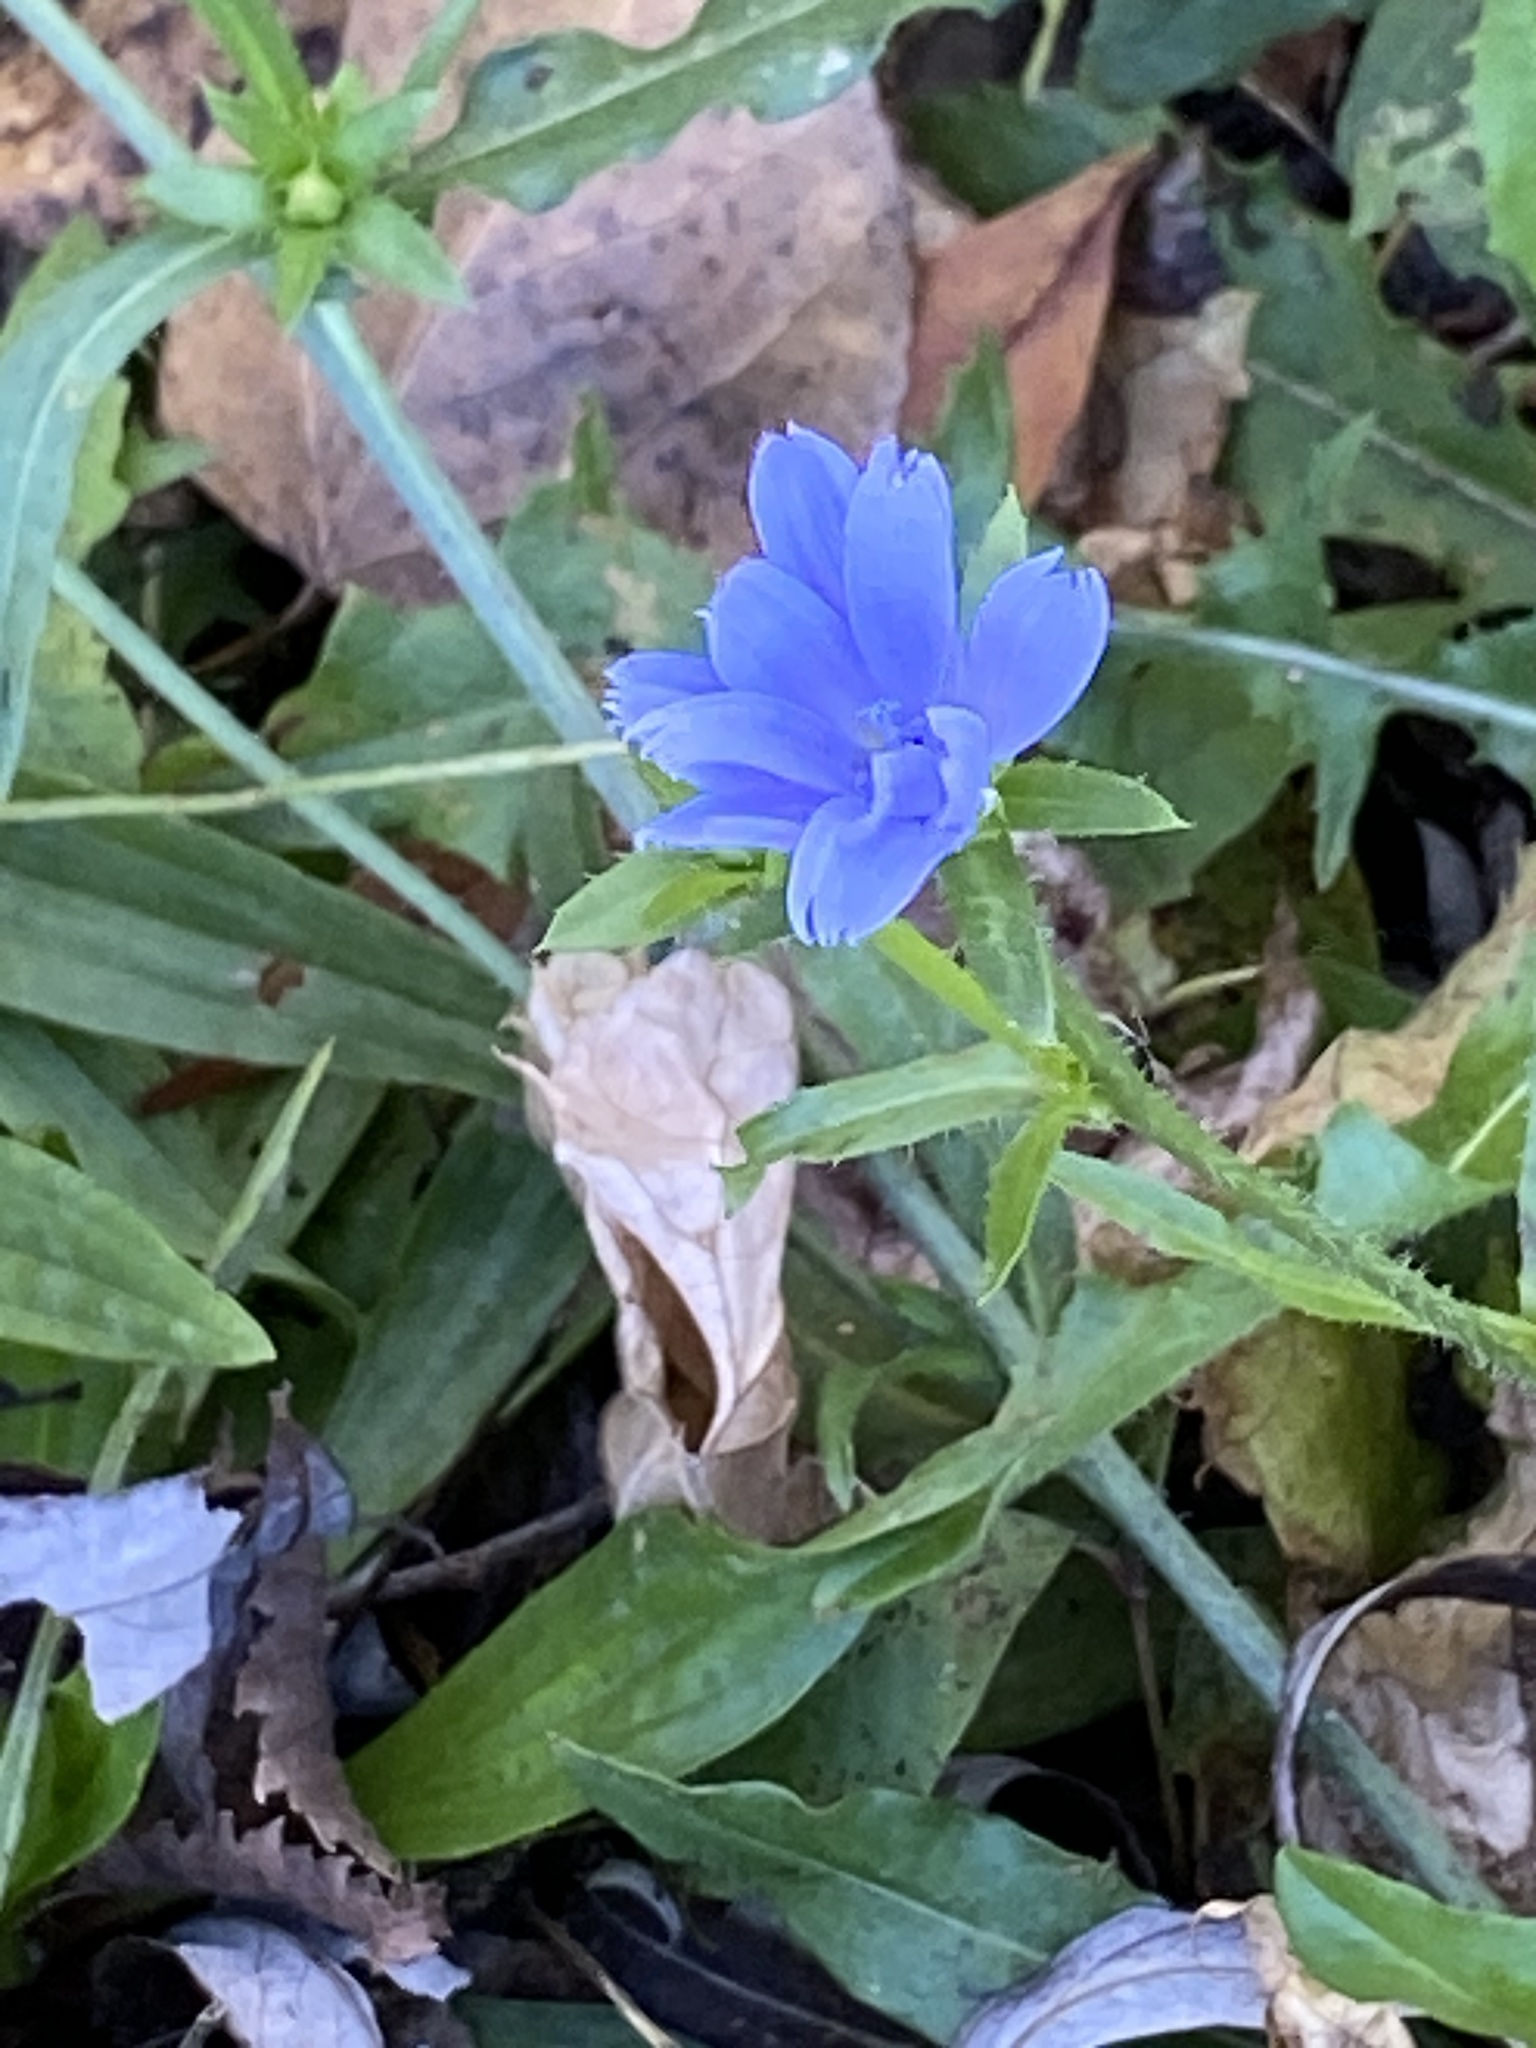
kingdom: Plantae
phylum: Tracheophyta
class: Magnoliopsida
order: Asterales
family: Asteraceae
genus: Cichorium
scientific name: Cichorium intybus
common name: Chicory
